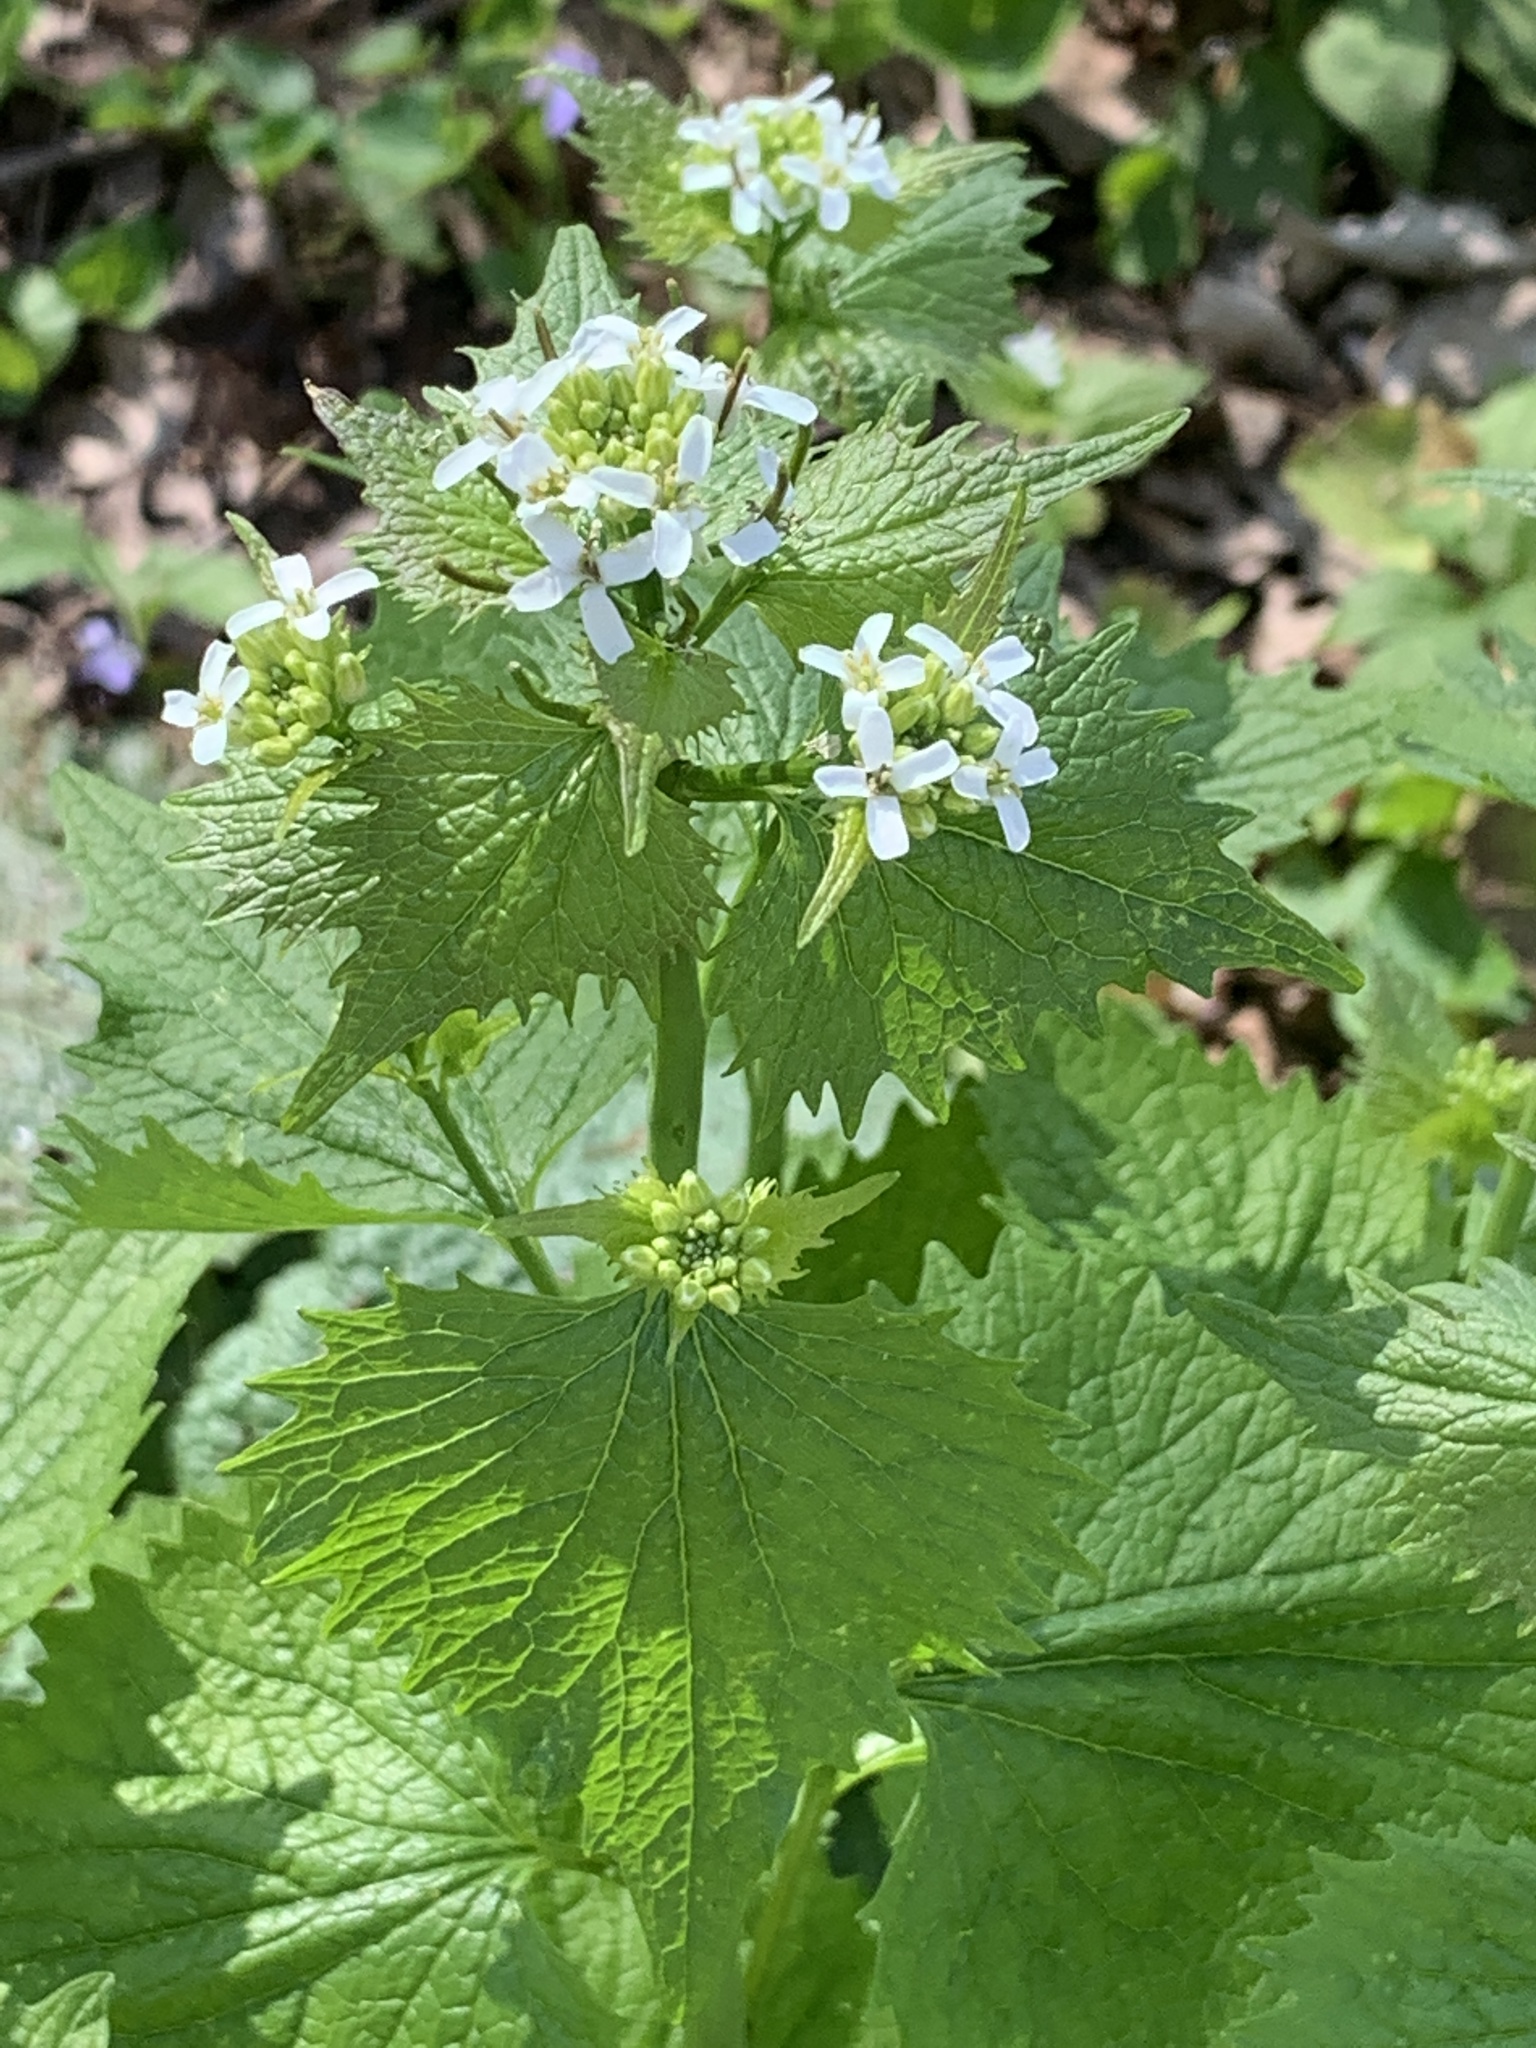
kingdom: Plantae
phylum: Tracheophyta
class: Magnoliopsida
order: Brassicales
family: Brassicaceae
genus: Alliaria
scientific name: Alliaria petiolata
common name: Garlic mustard
